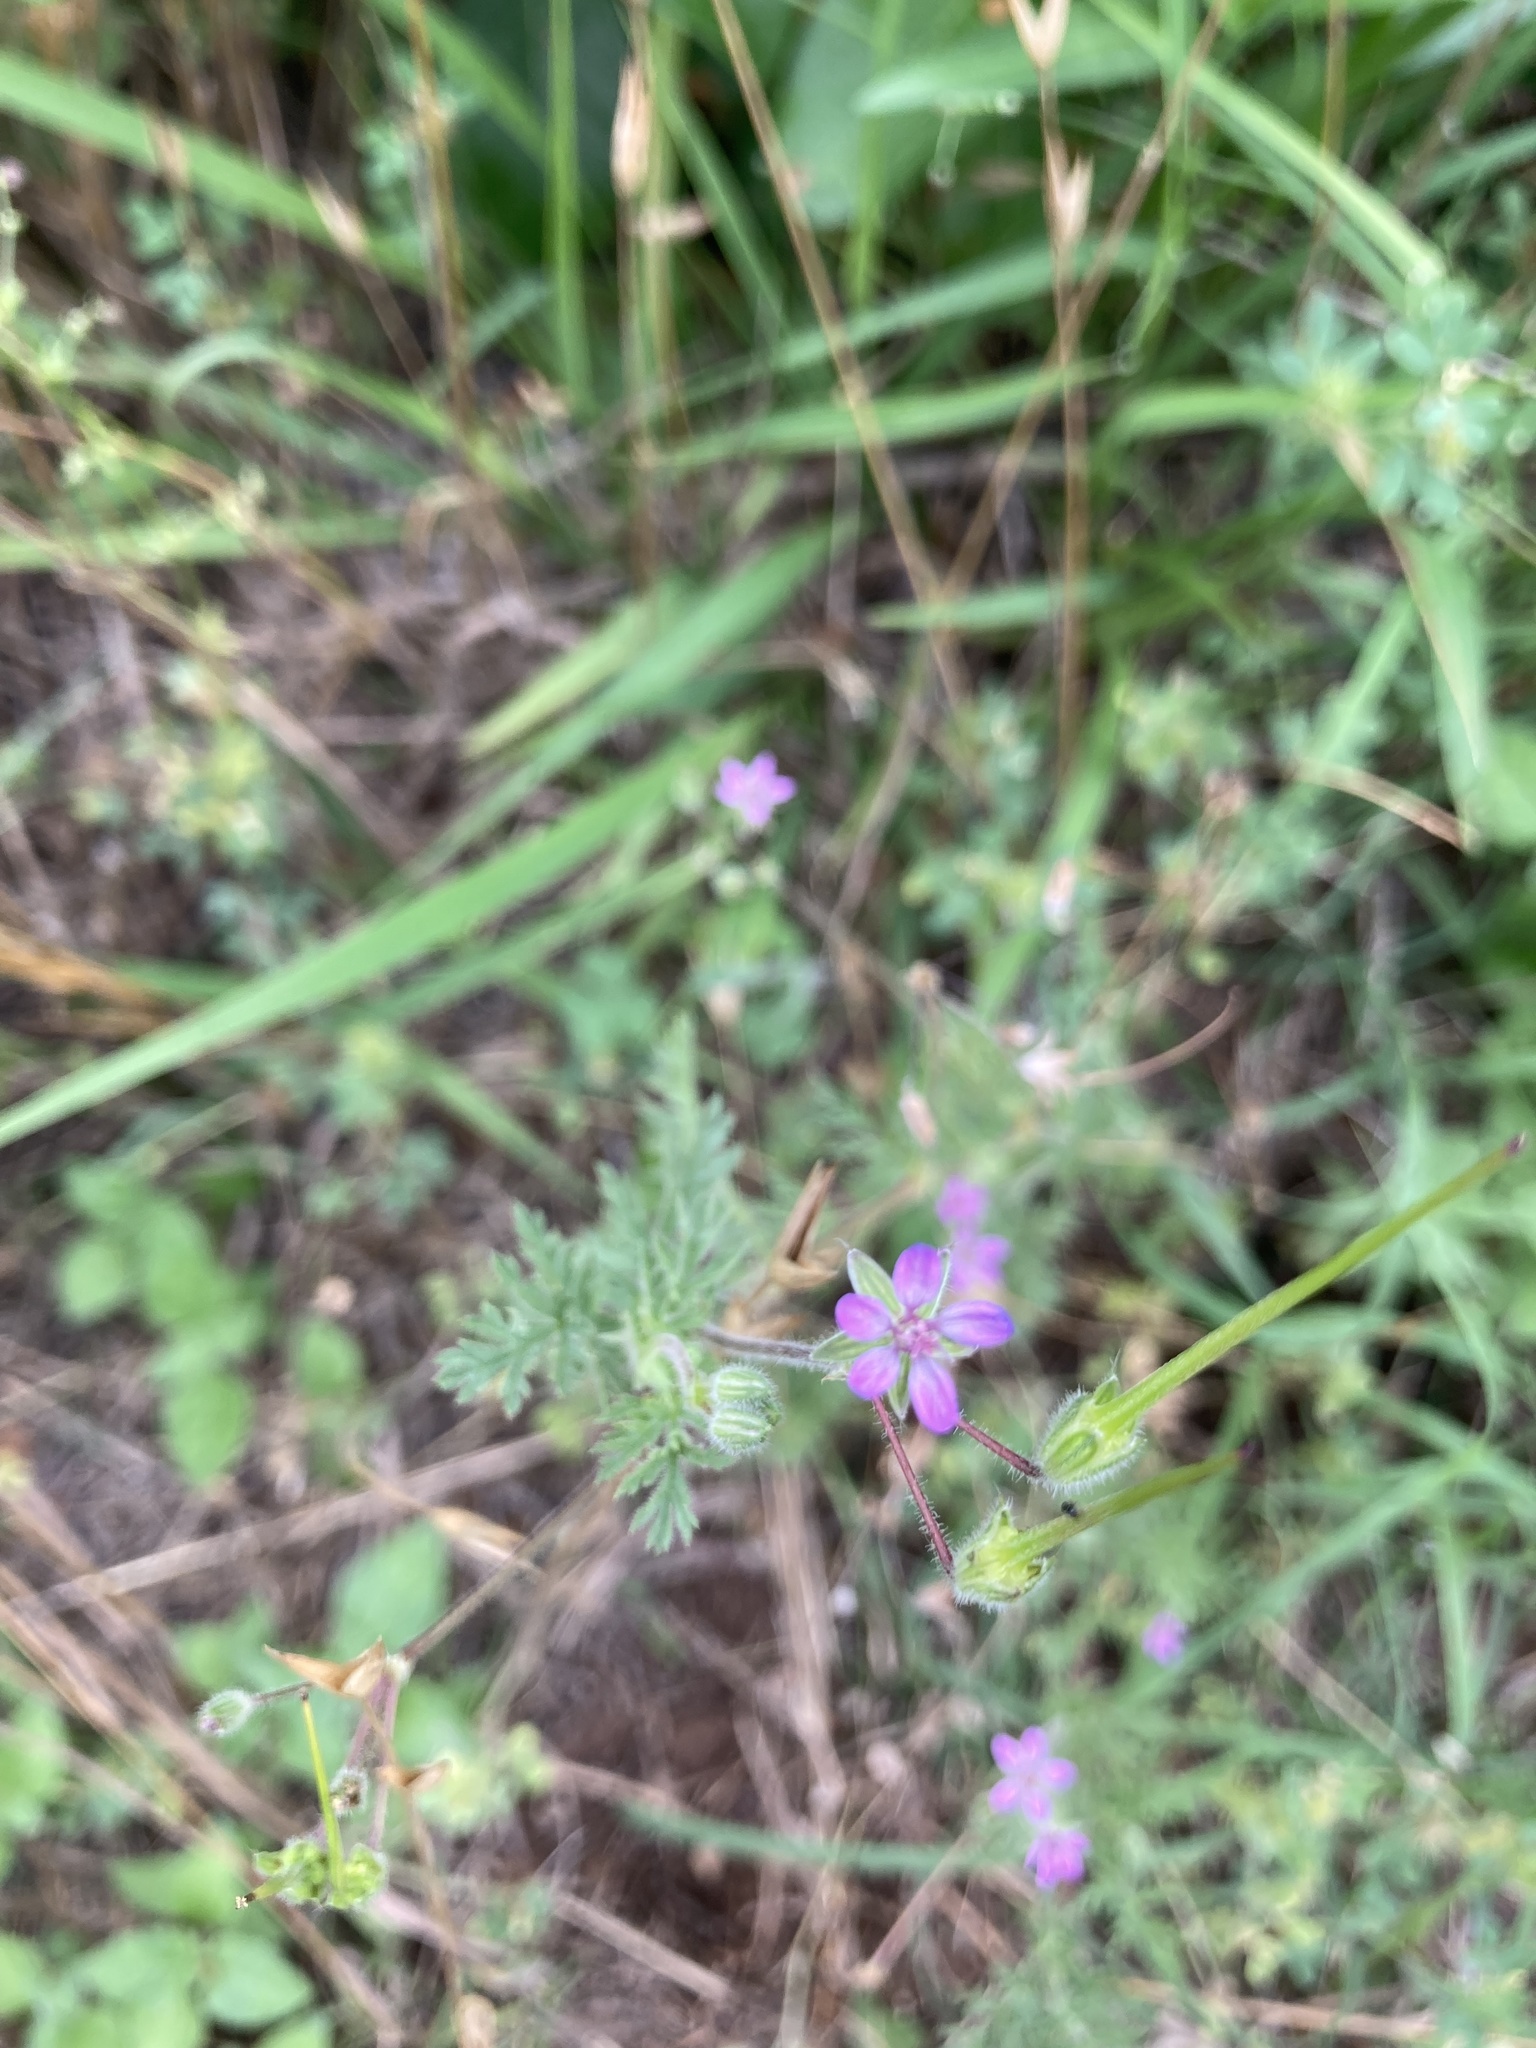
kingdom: Plantae
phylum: Tracheophyta
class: Magnoliopsida
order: Geraniales
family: Geraniaceae
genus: Erodium
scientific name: Erodium cicutarium
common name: Common stork's-bill
